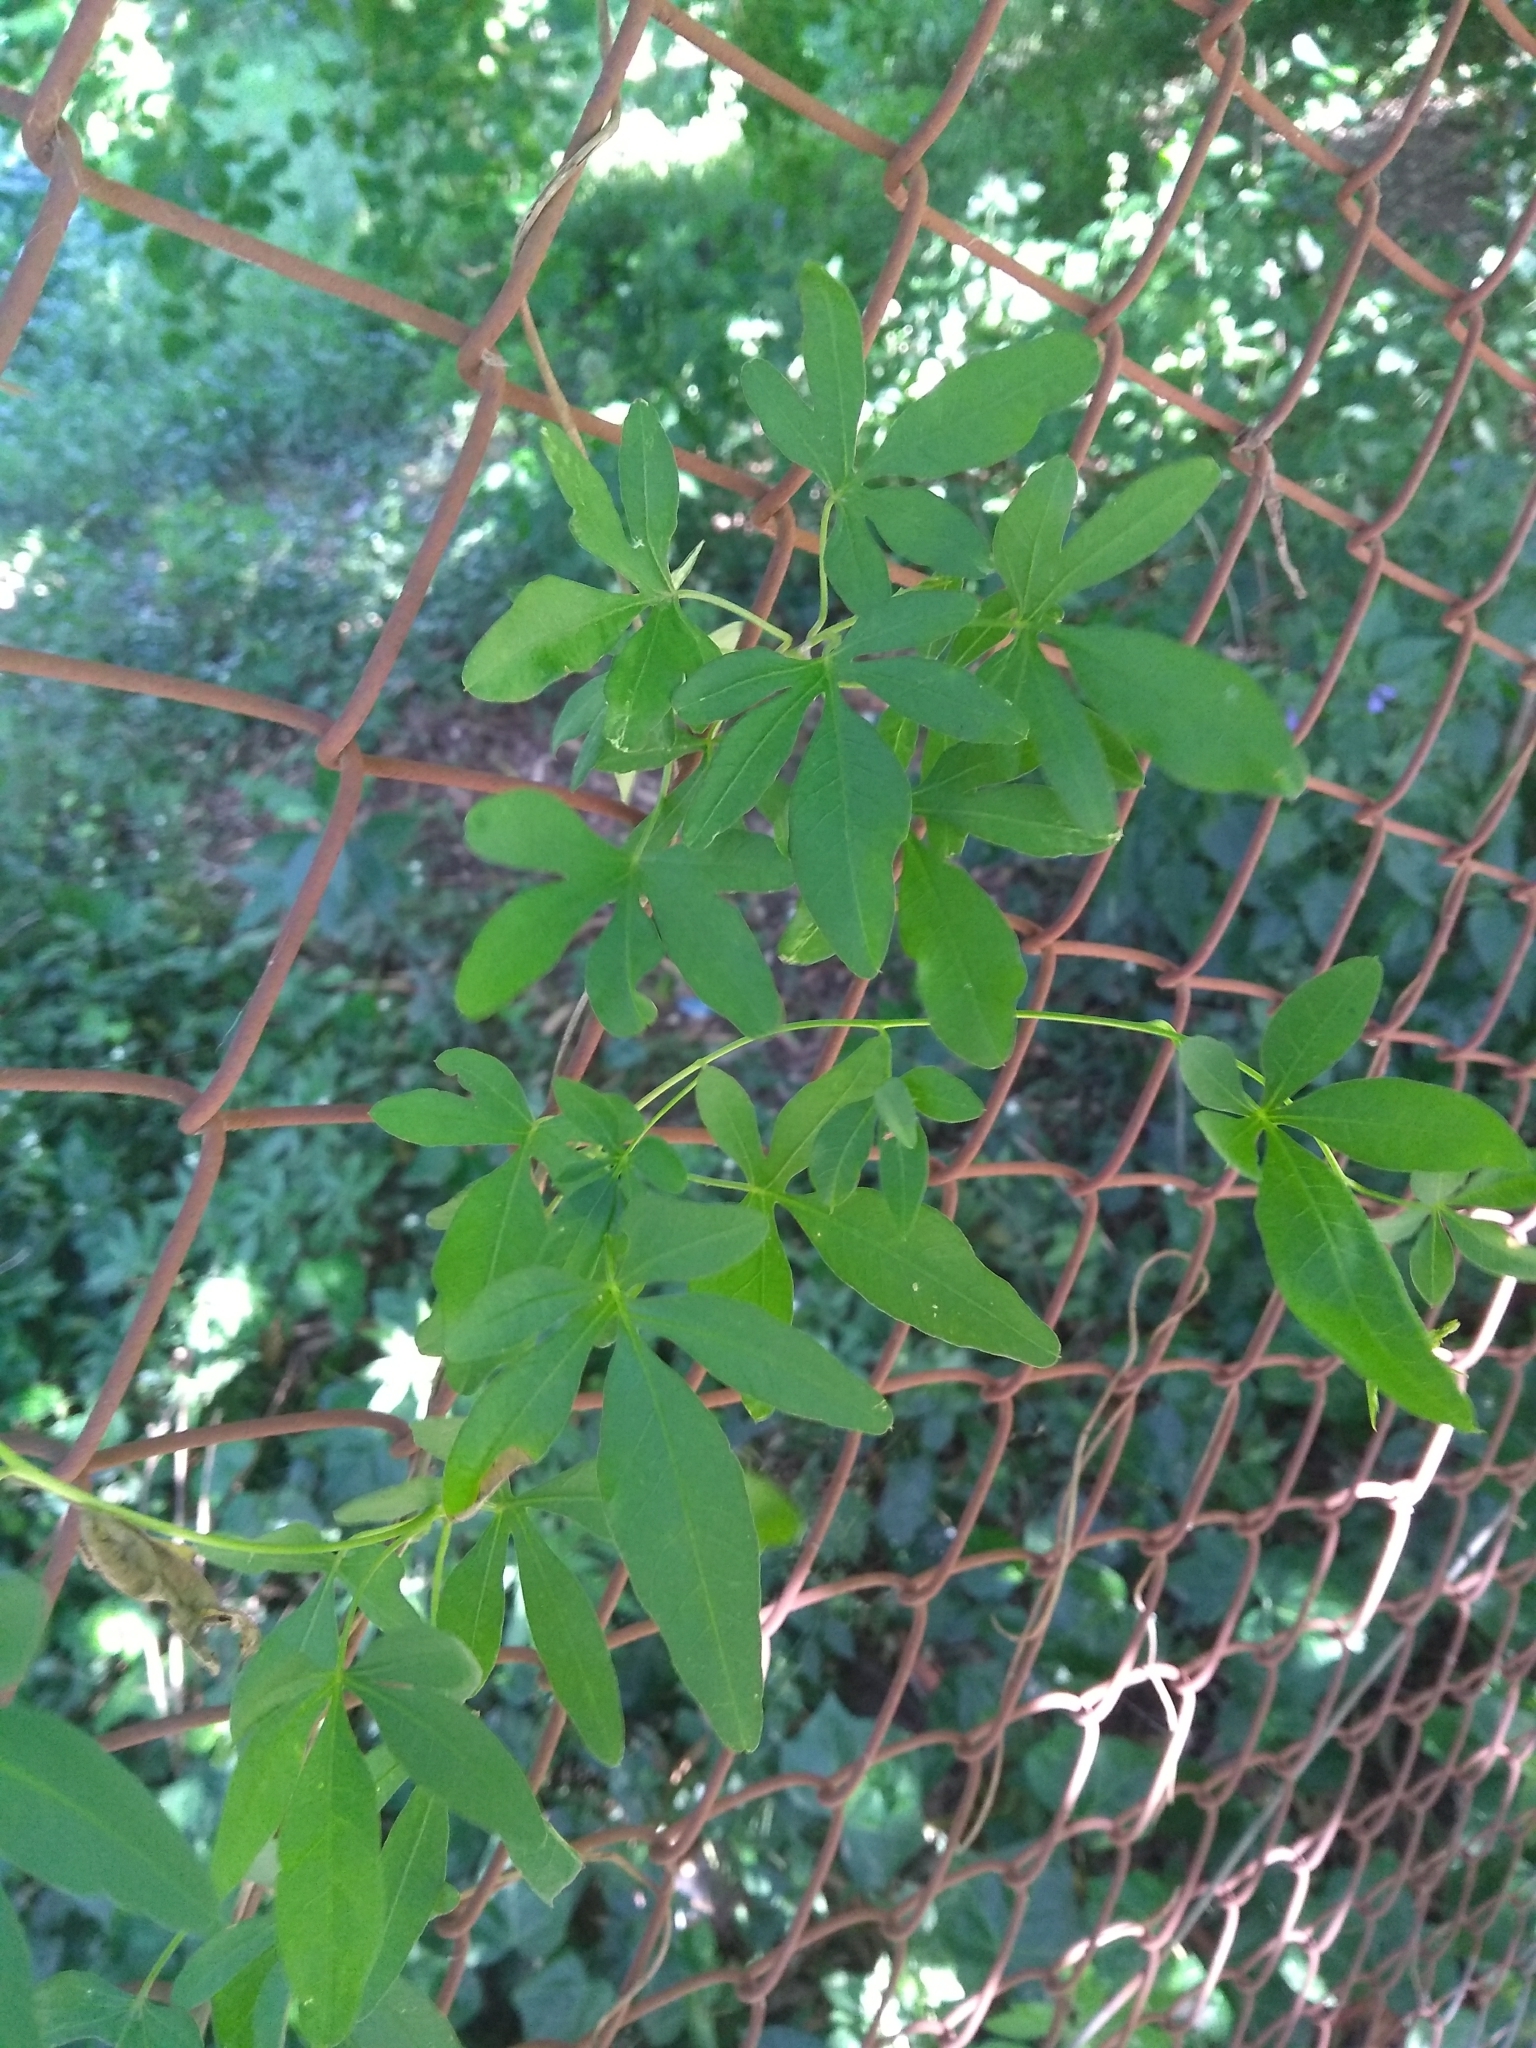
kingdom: Plantae
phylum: Tracheophyta
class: Magnoliopsida
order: Solanales
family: Convolvulaceae
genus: Ipomoea
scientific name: Ipomoea cairica
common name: Mile a minute vine
